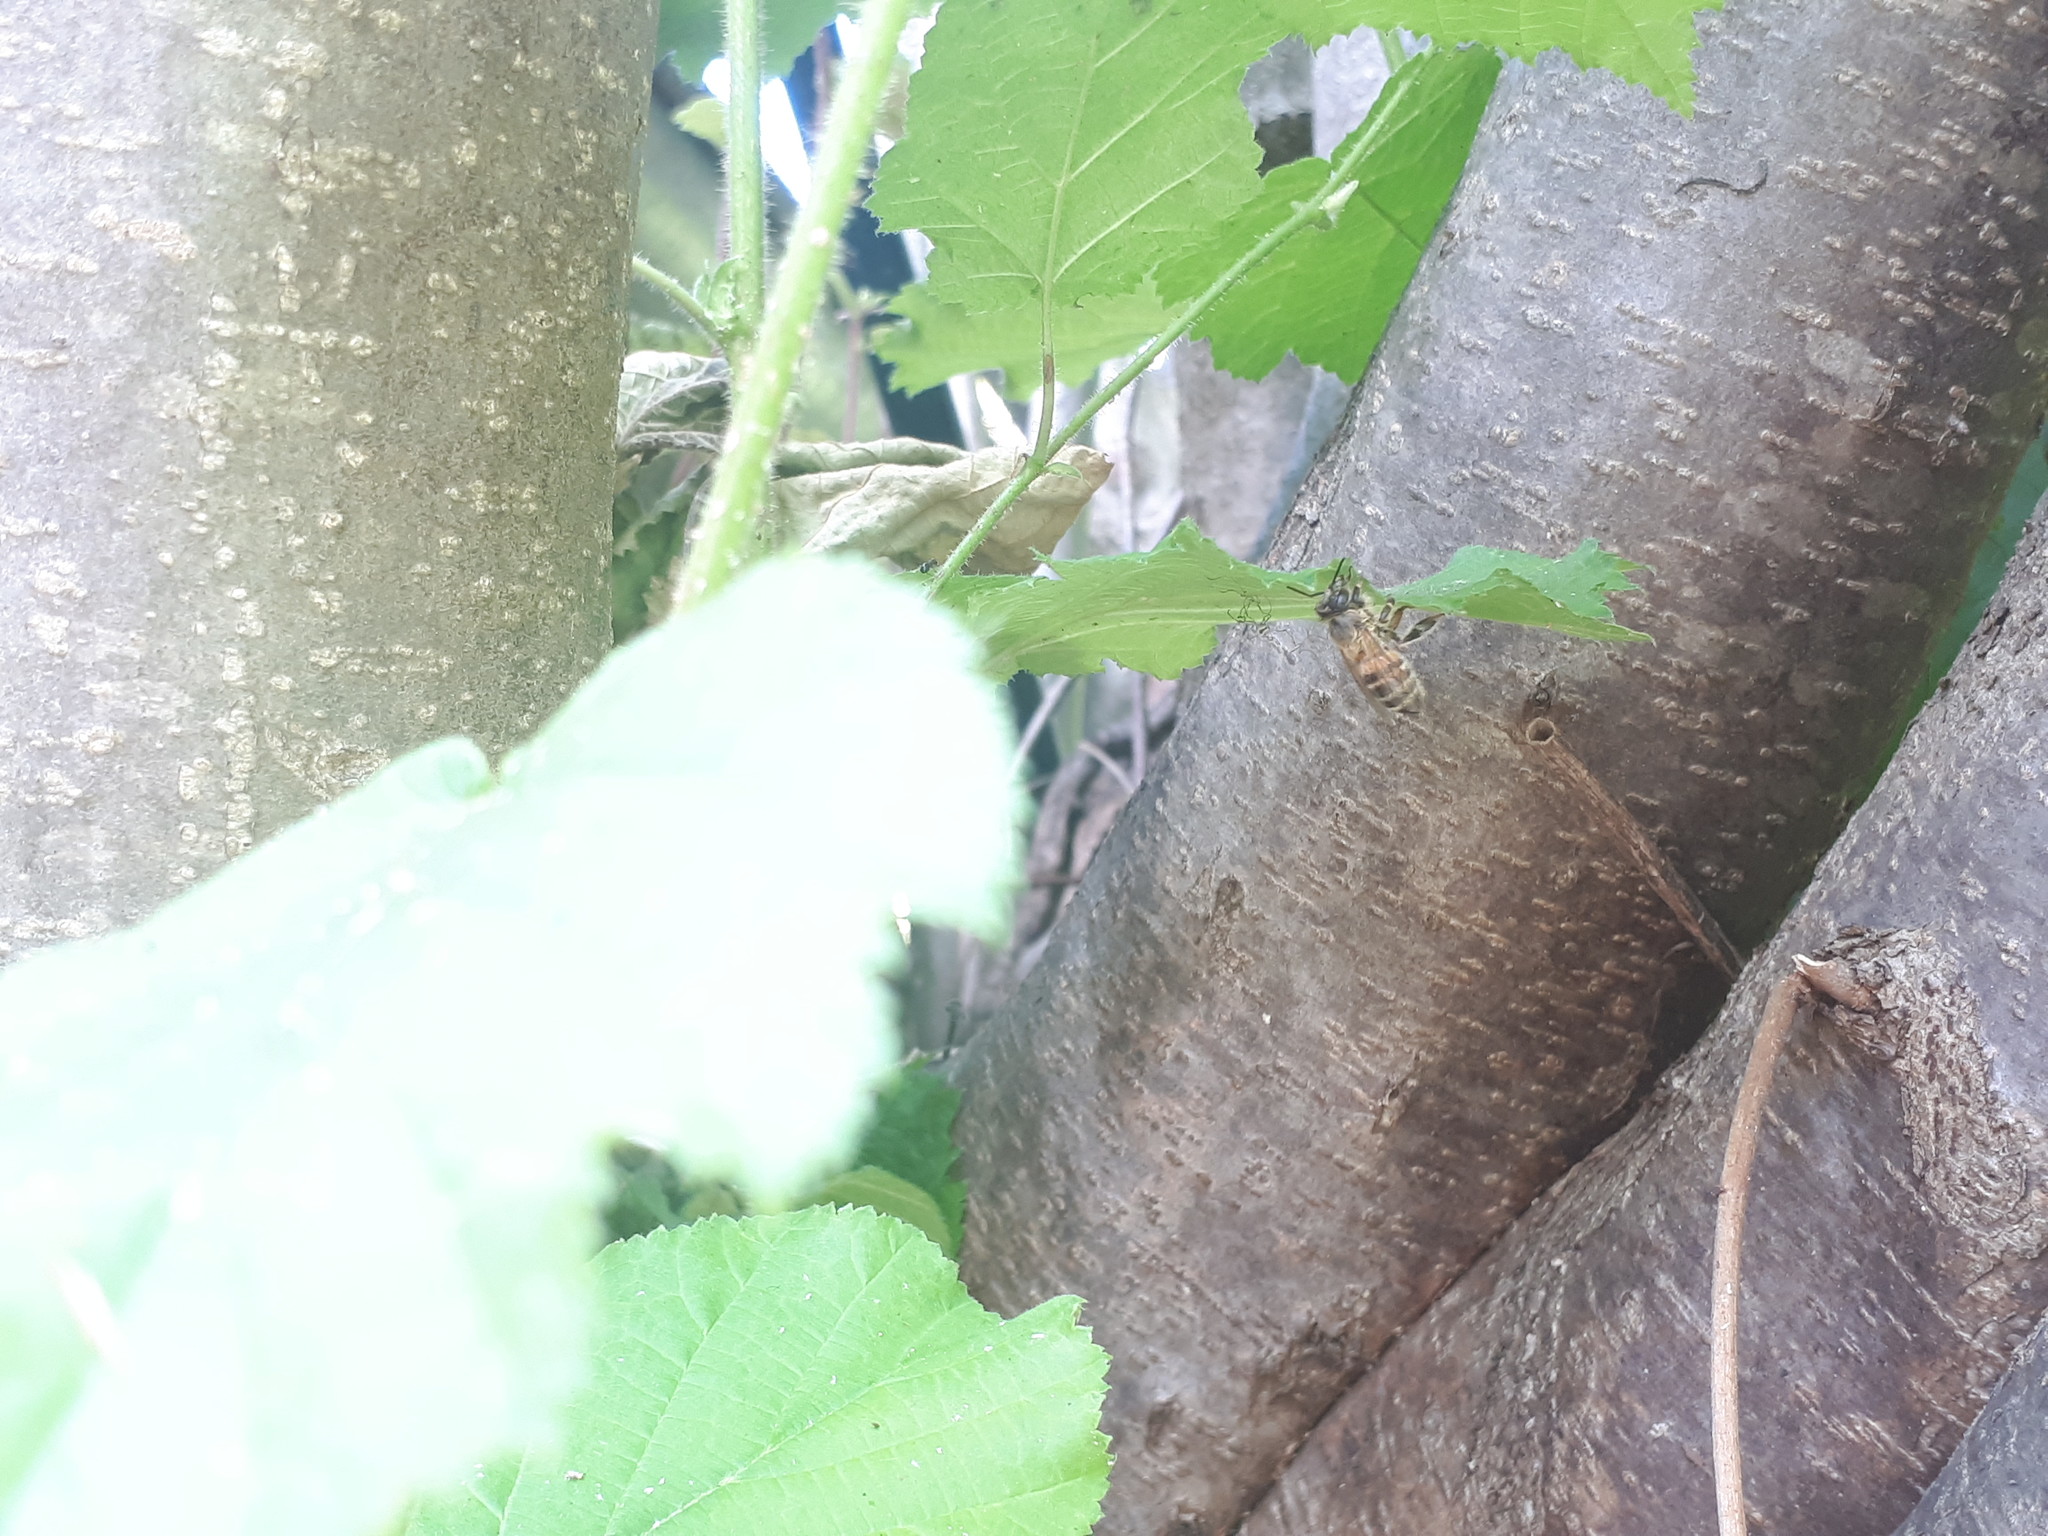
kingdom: Animalia
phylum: Arthropoda
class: Insecta
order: Hymenoptera
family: Apidae
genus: Apis
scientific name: Apis mellifera
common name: Honey bee
